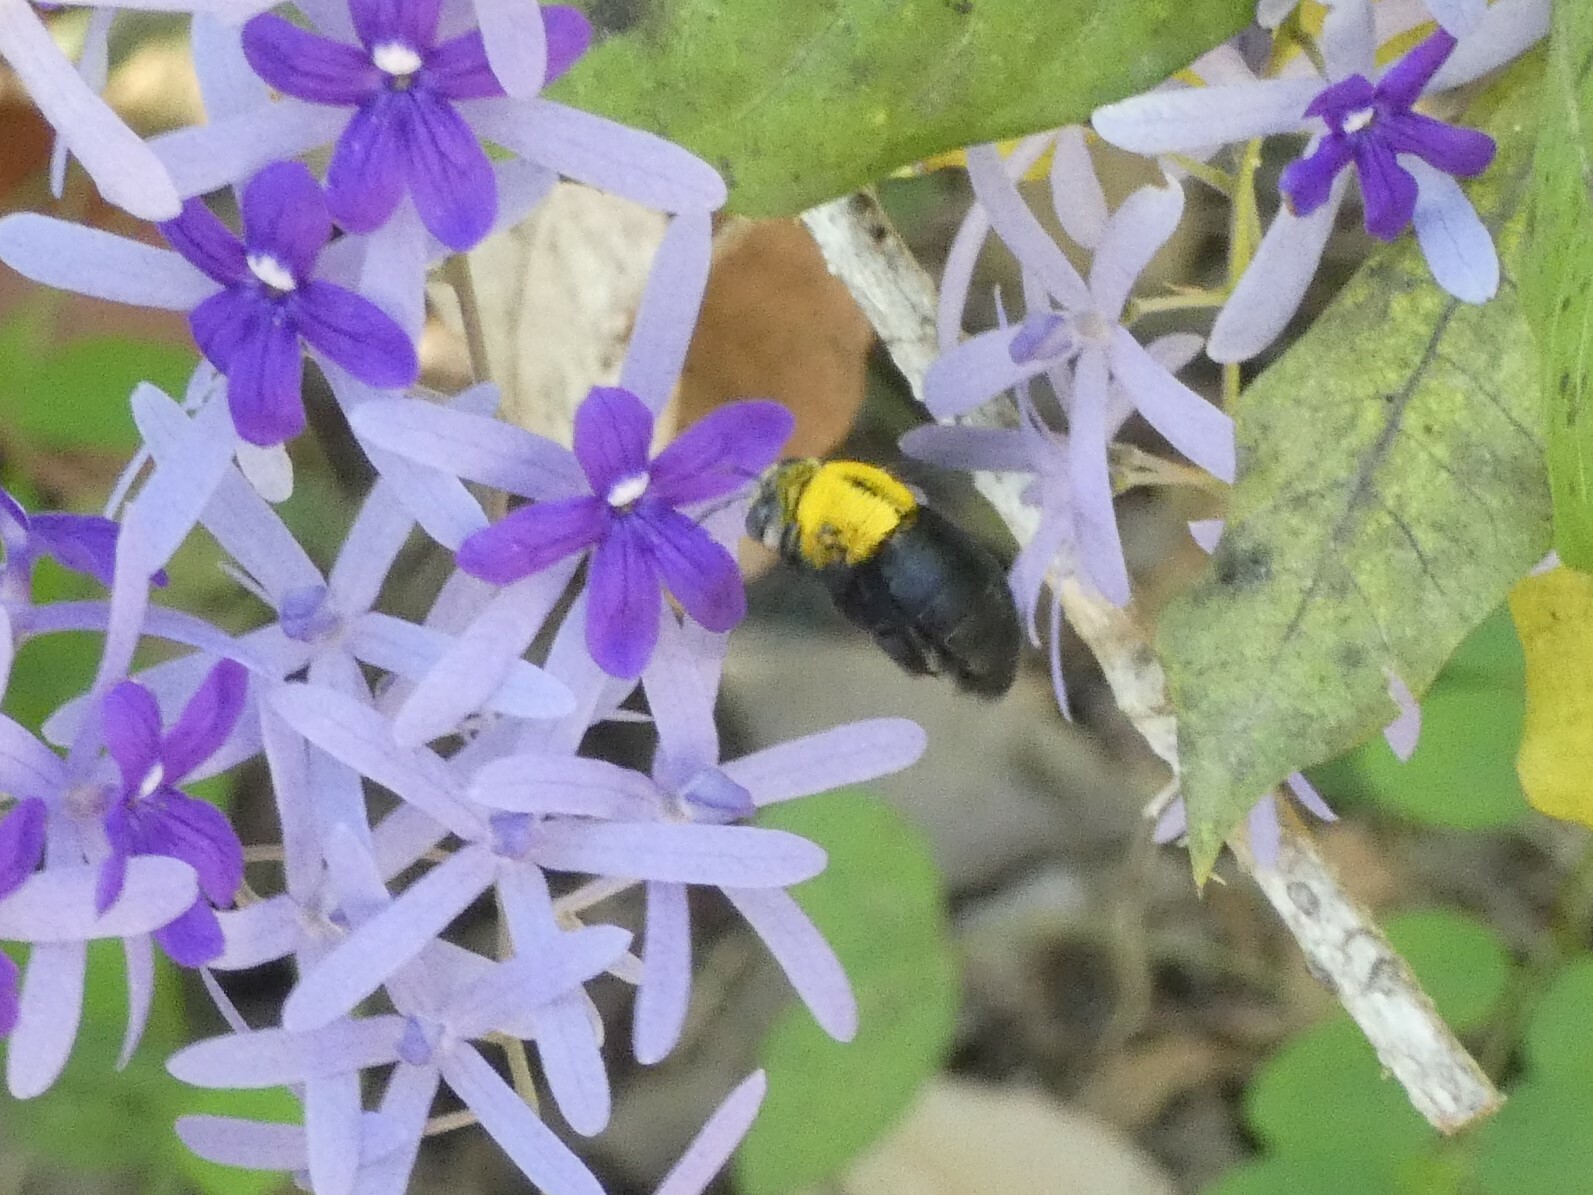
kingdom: Animalia
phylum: Arthropoda
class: Insecta
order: Hymenoptera
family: Apidae
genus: Xylocopa
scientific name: Xylocopa minor
